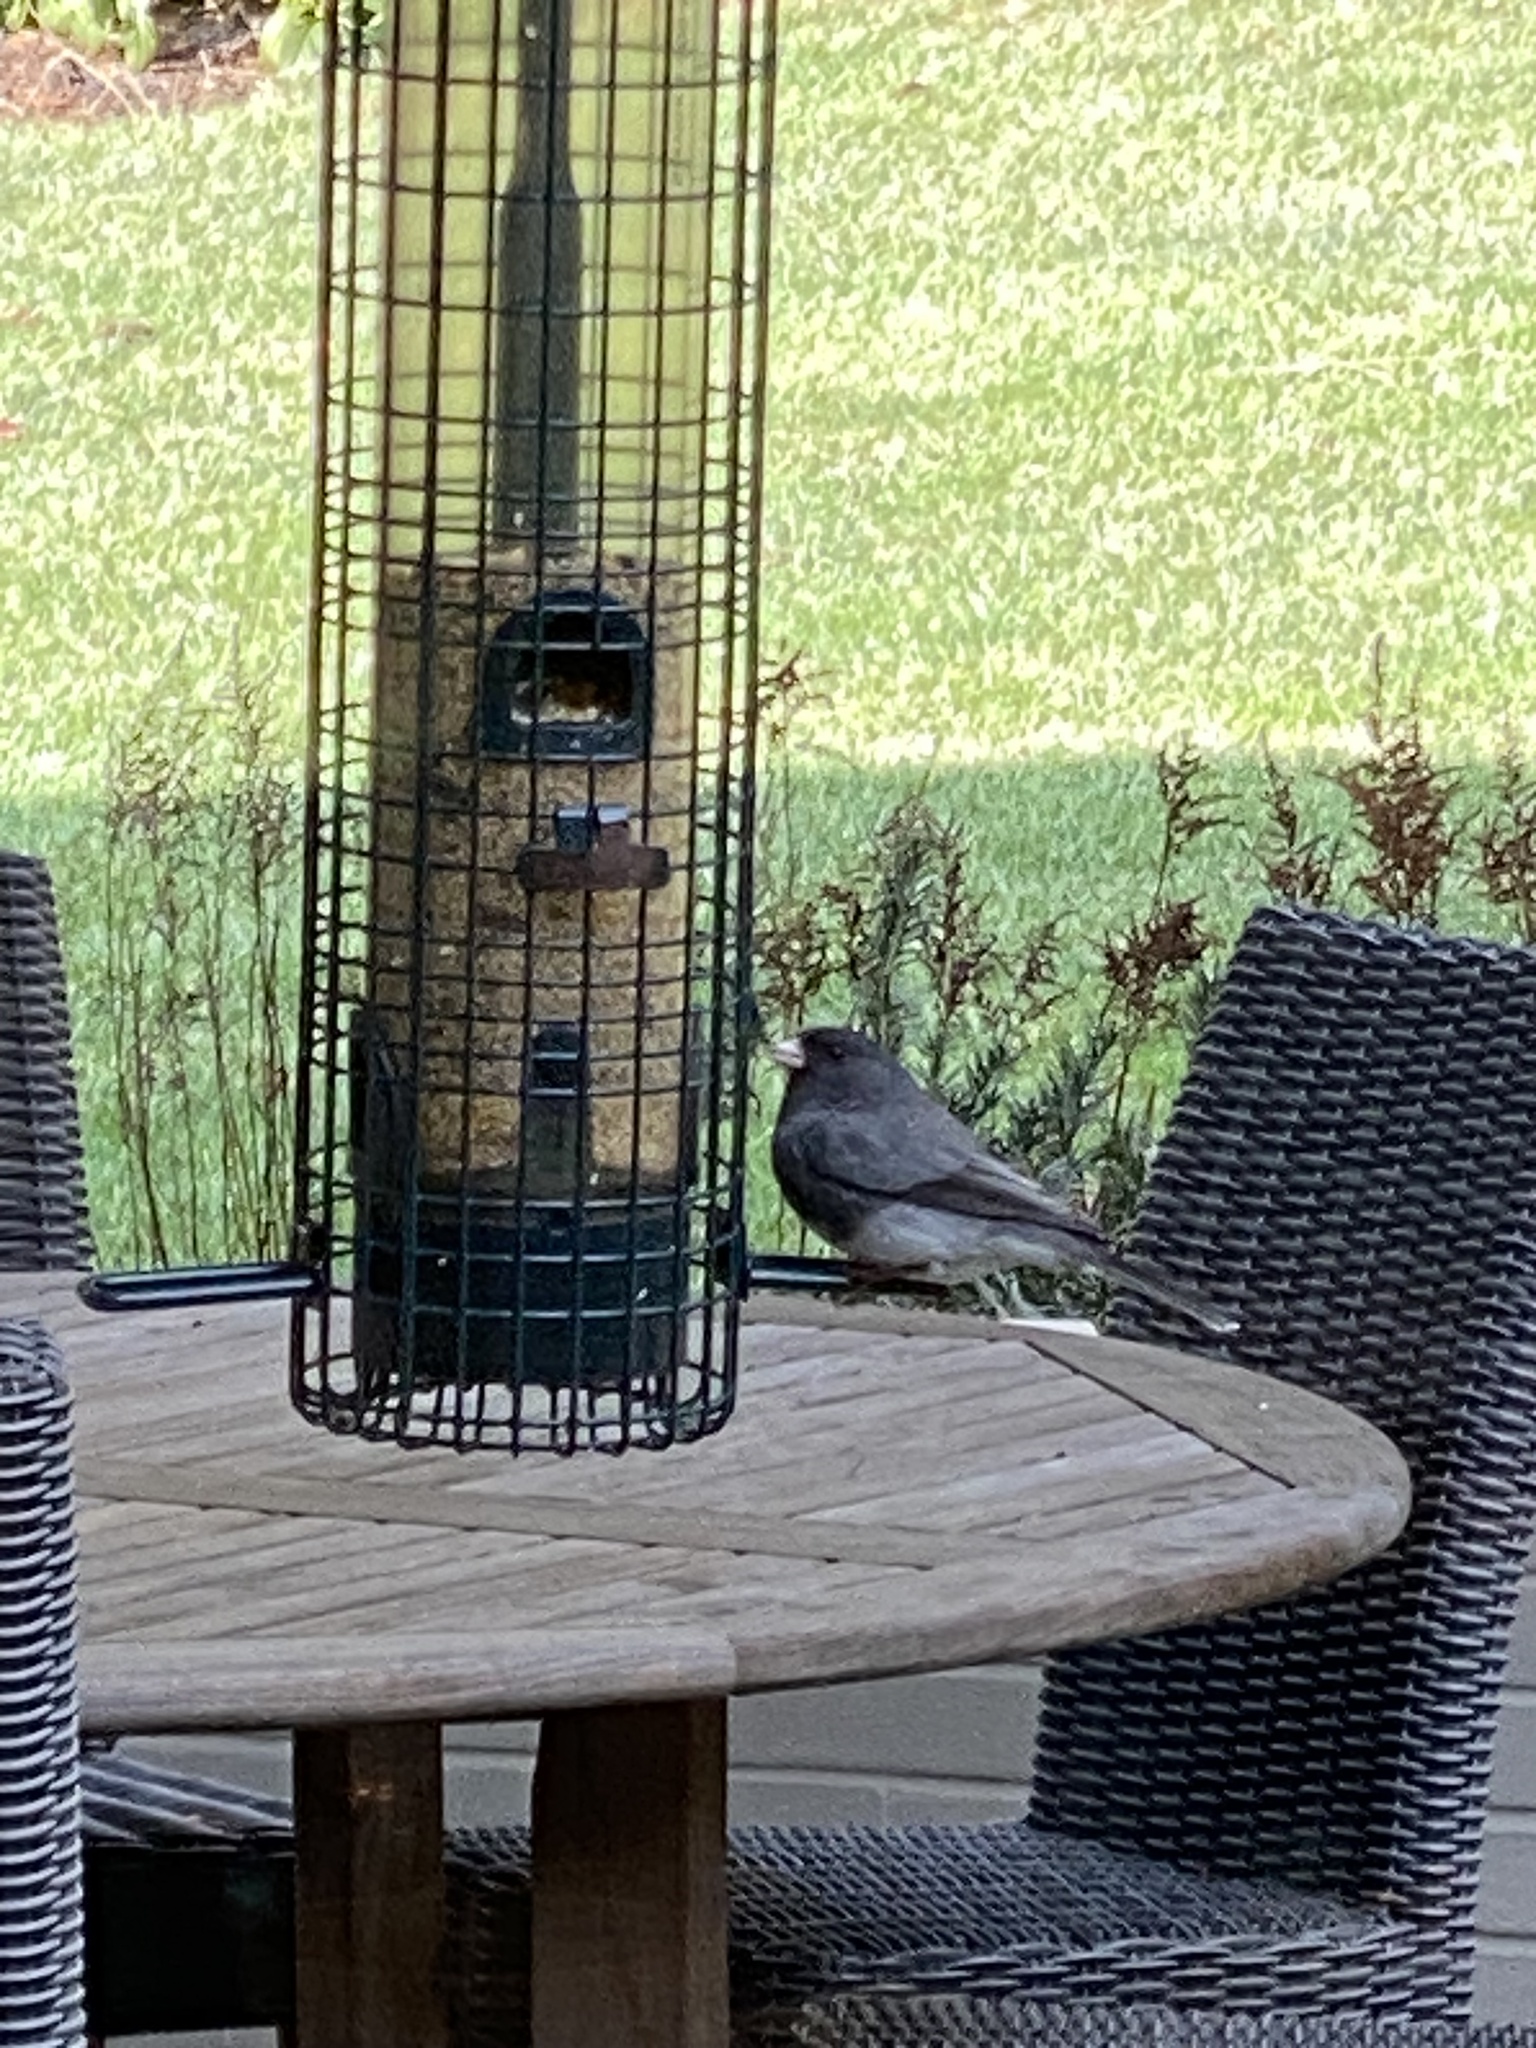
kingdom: Animalia
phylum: Chordata
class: Aves
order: Passeriformes
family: Passerellidae
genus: Junco
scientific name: Junco hyemalis
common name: Dark-eyed junco
